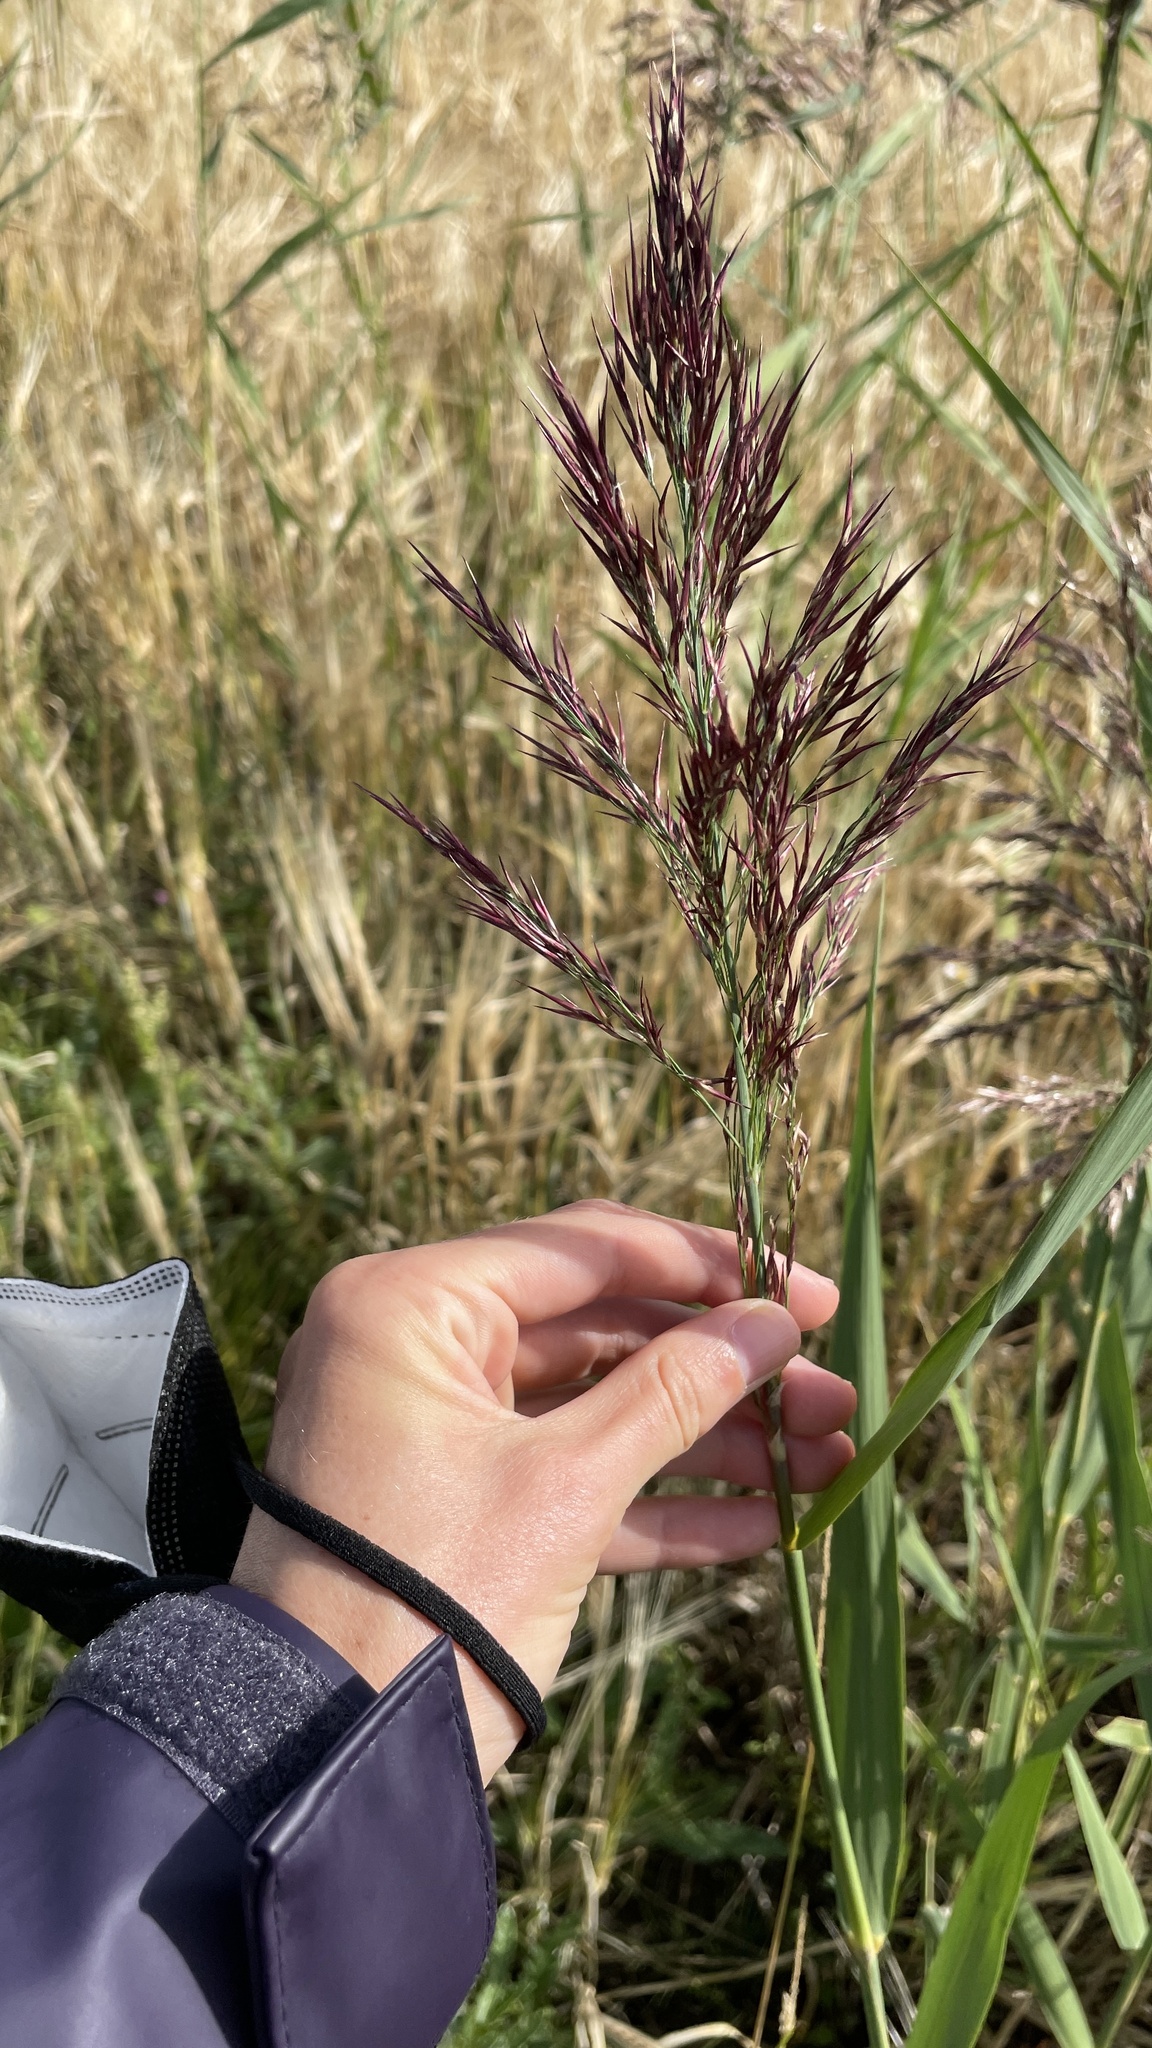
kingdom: Plantae
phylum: Tracheophyta
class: Liliopsida
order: Poales
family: Poaceae
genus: Phragmites
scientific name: Phragmites australis
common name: Common reed
